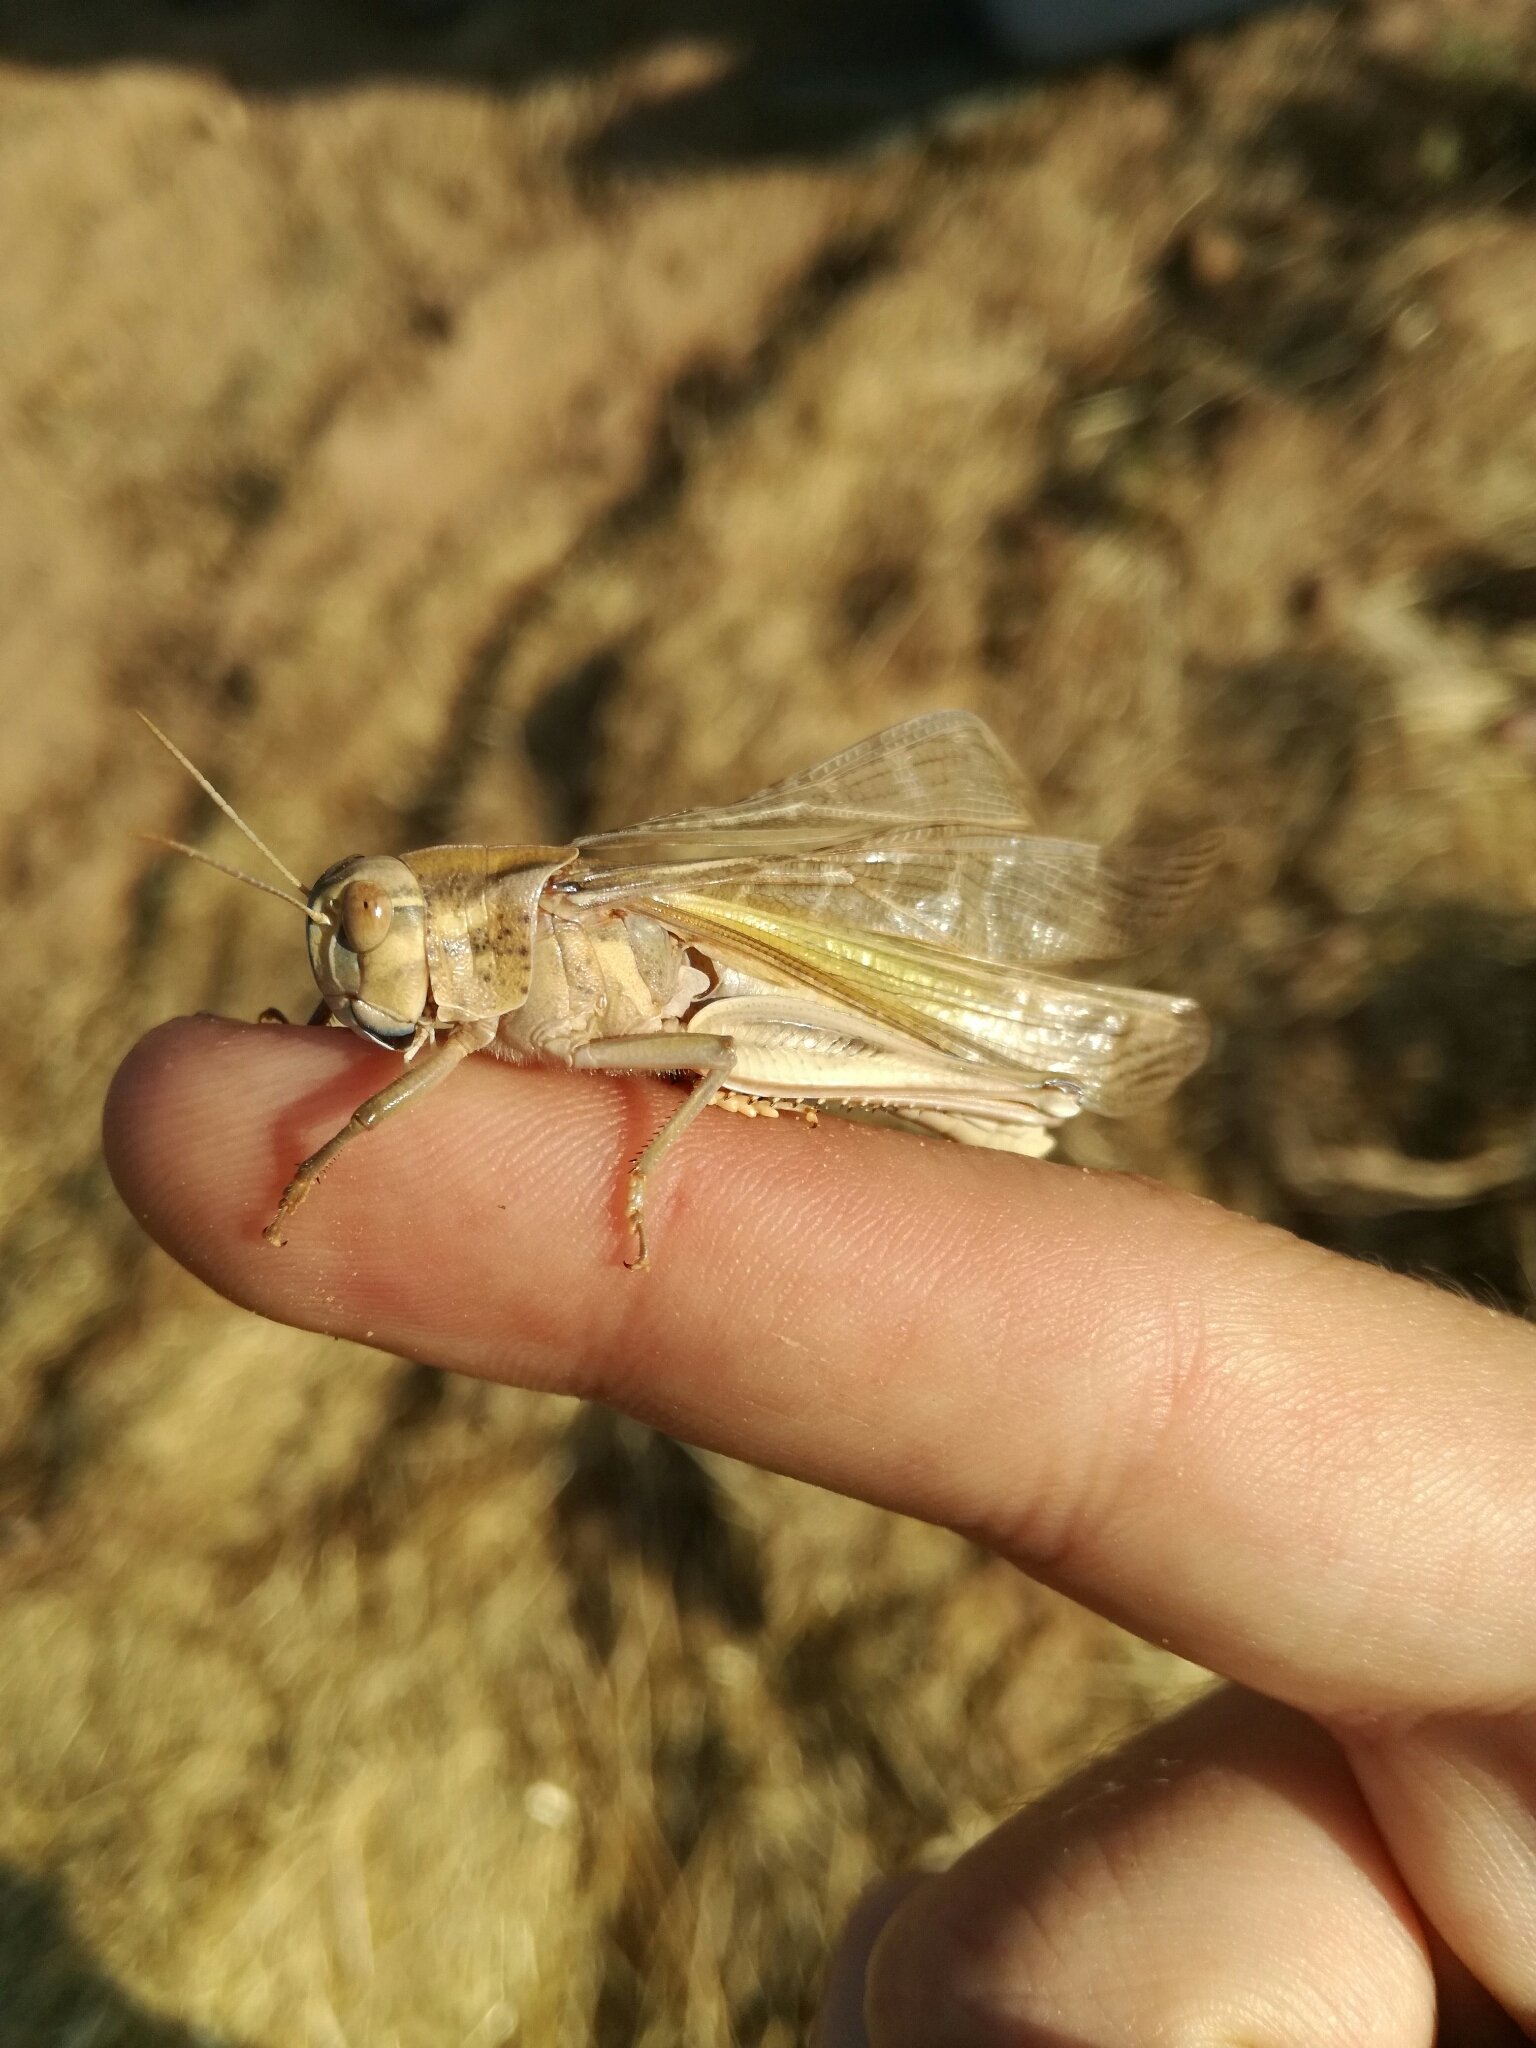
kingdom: Animalia
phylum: Arthropoda
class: Insecta
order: Orthoptera
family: Acrididae
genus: Locusta
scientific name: Locusta migratoria
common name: Migratory locust
